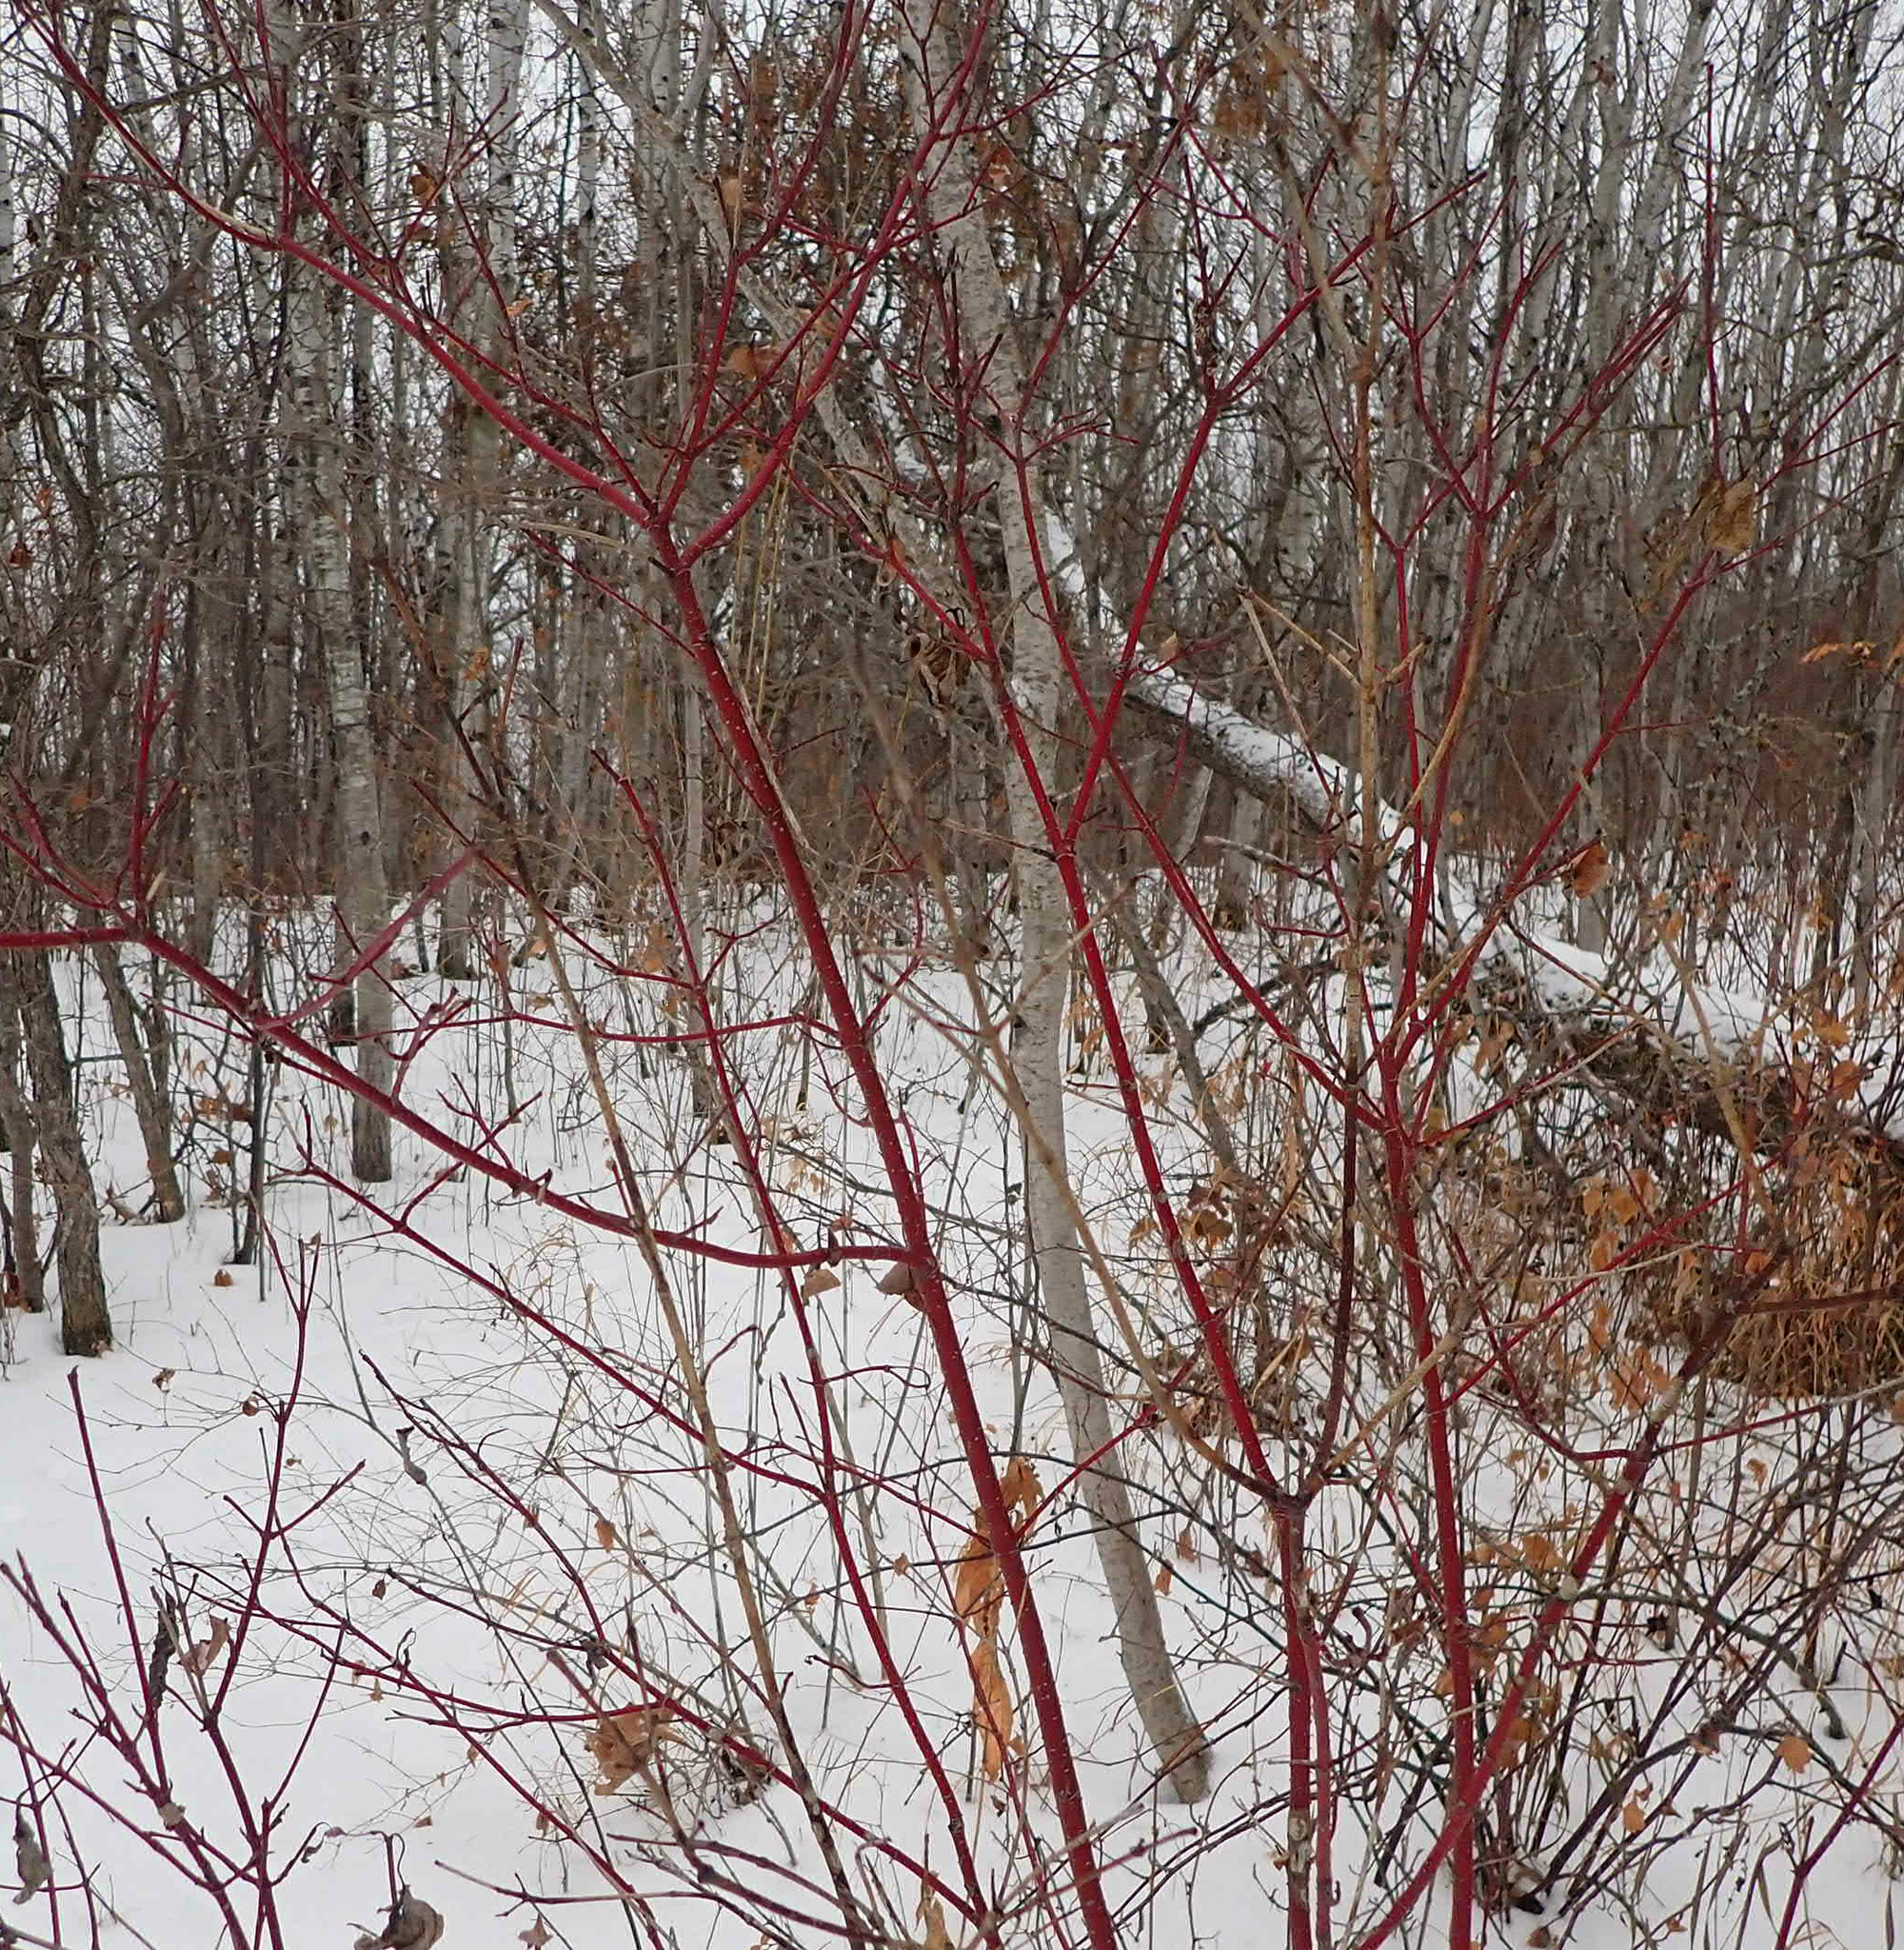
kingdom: Plantae
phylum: Tracheophyta
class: Magnoliopsida
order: Cornales
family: Cornaceae
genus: Cornus
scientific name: Cornus sericea
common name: Red-osier dogwood
